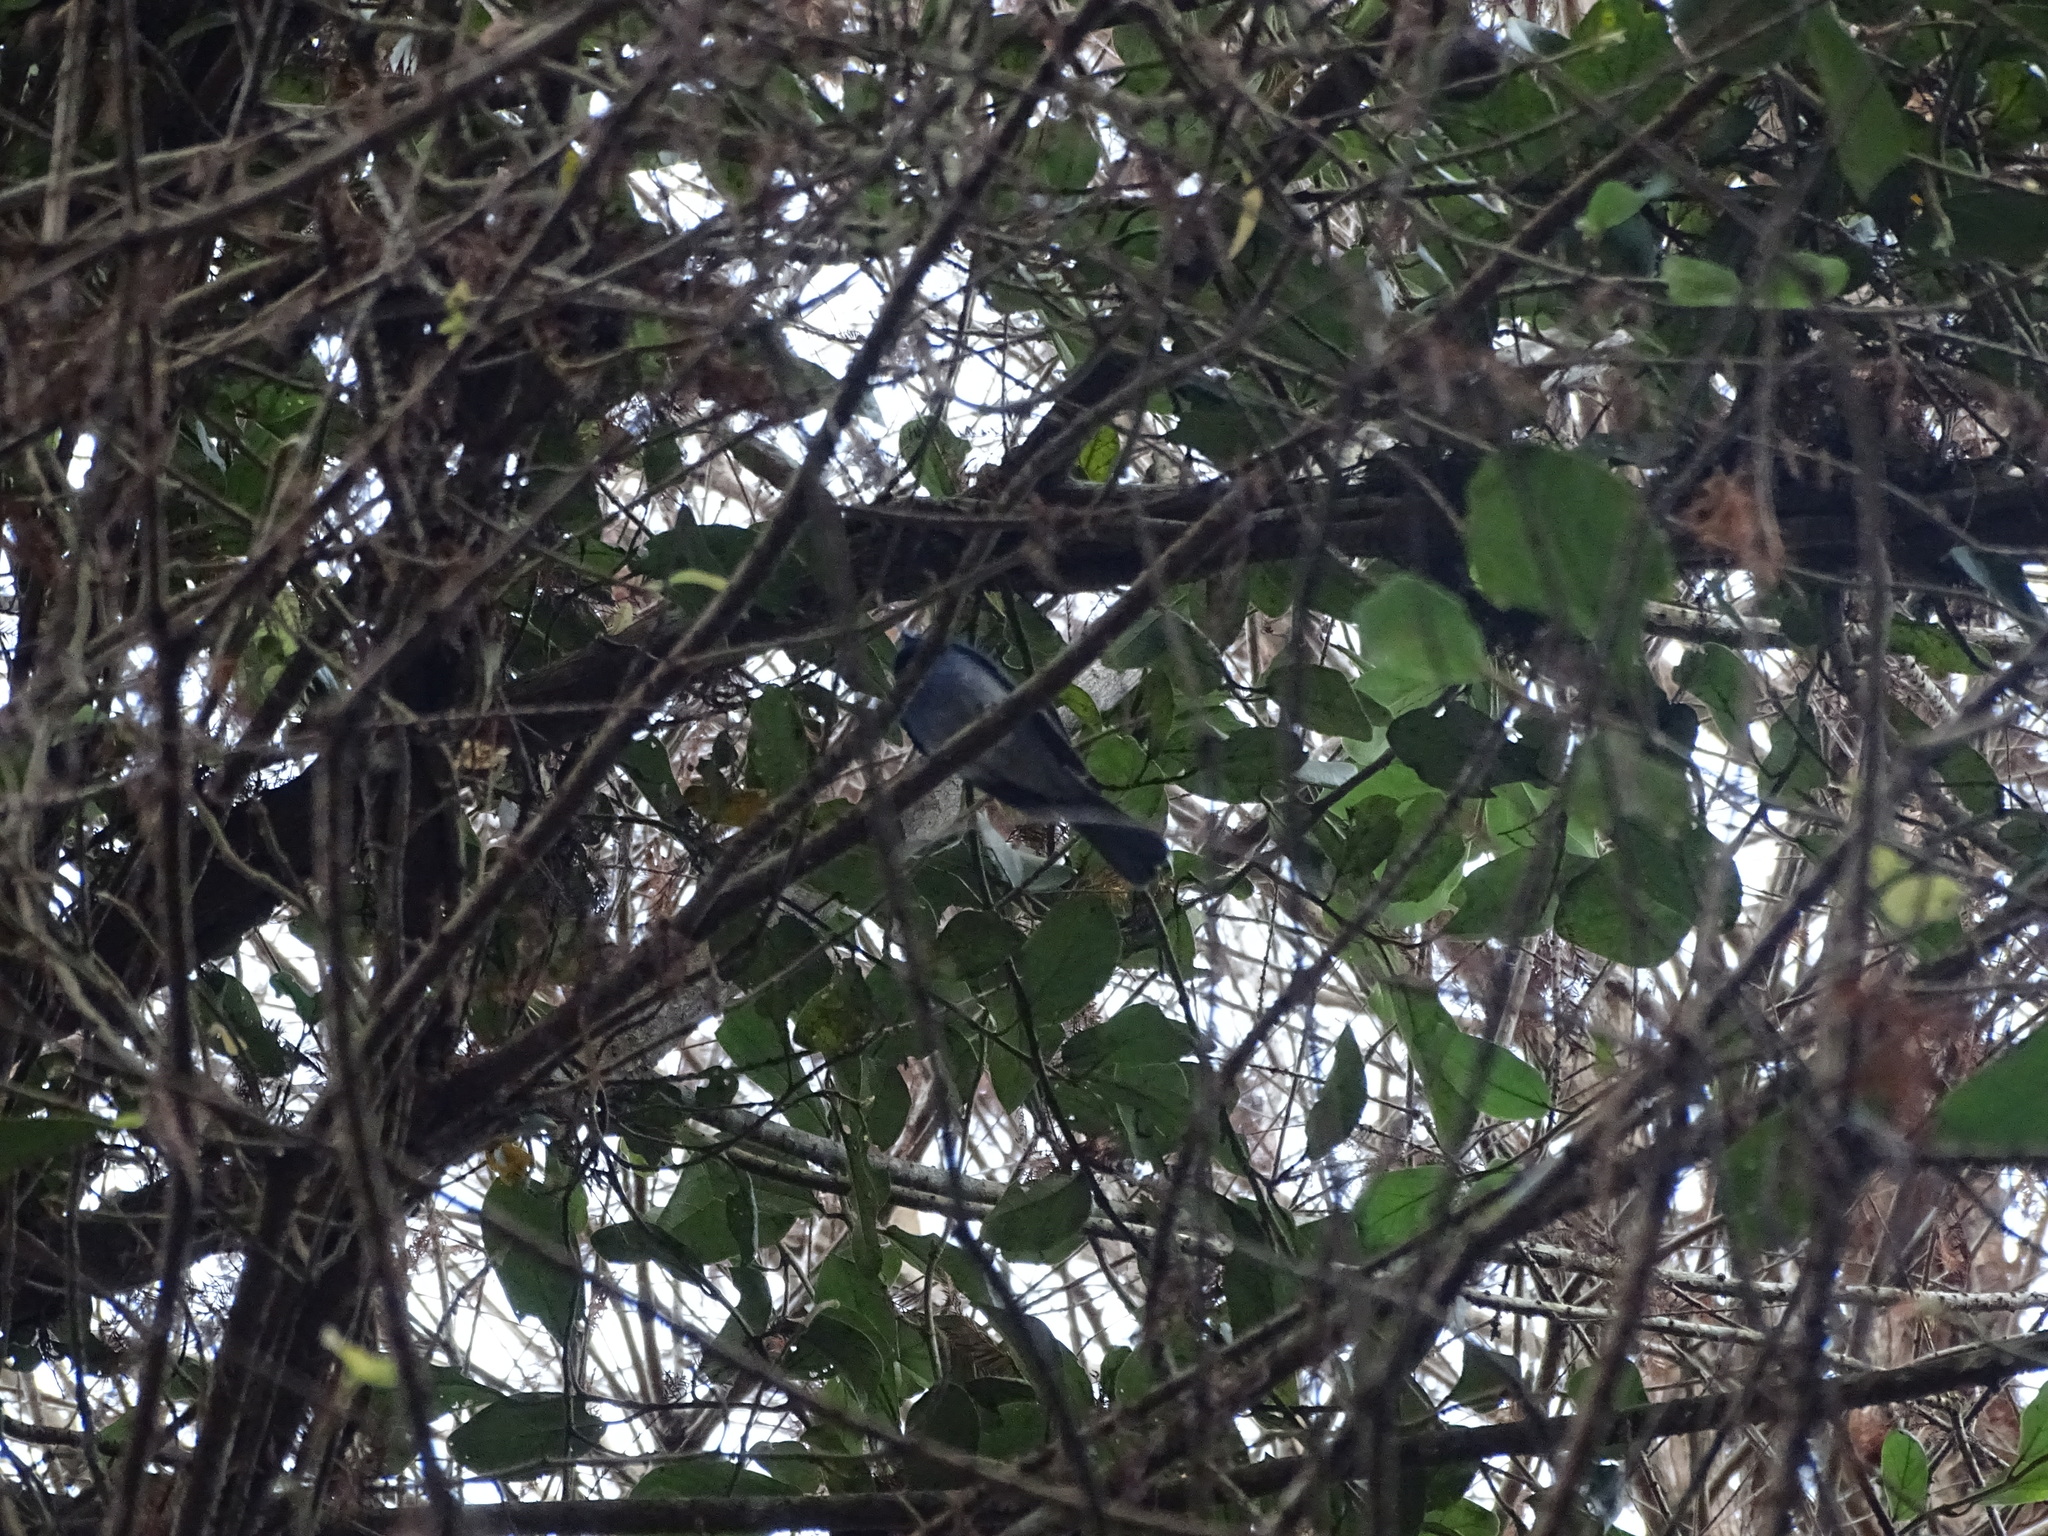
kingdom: Animalia
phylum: Chordata
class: Aves
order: Passeriformes
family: Monarchidae
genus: Hypothymis
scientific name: Hypothymis azurea
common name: Black-naped monarch
